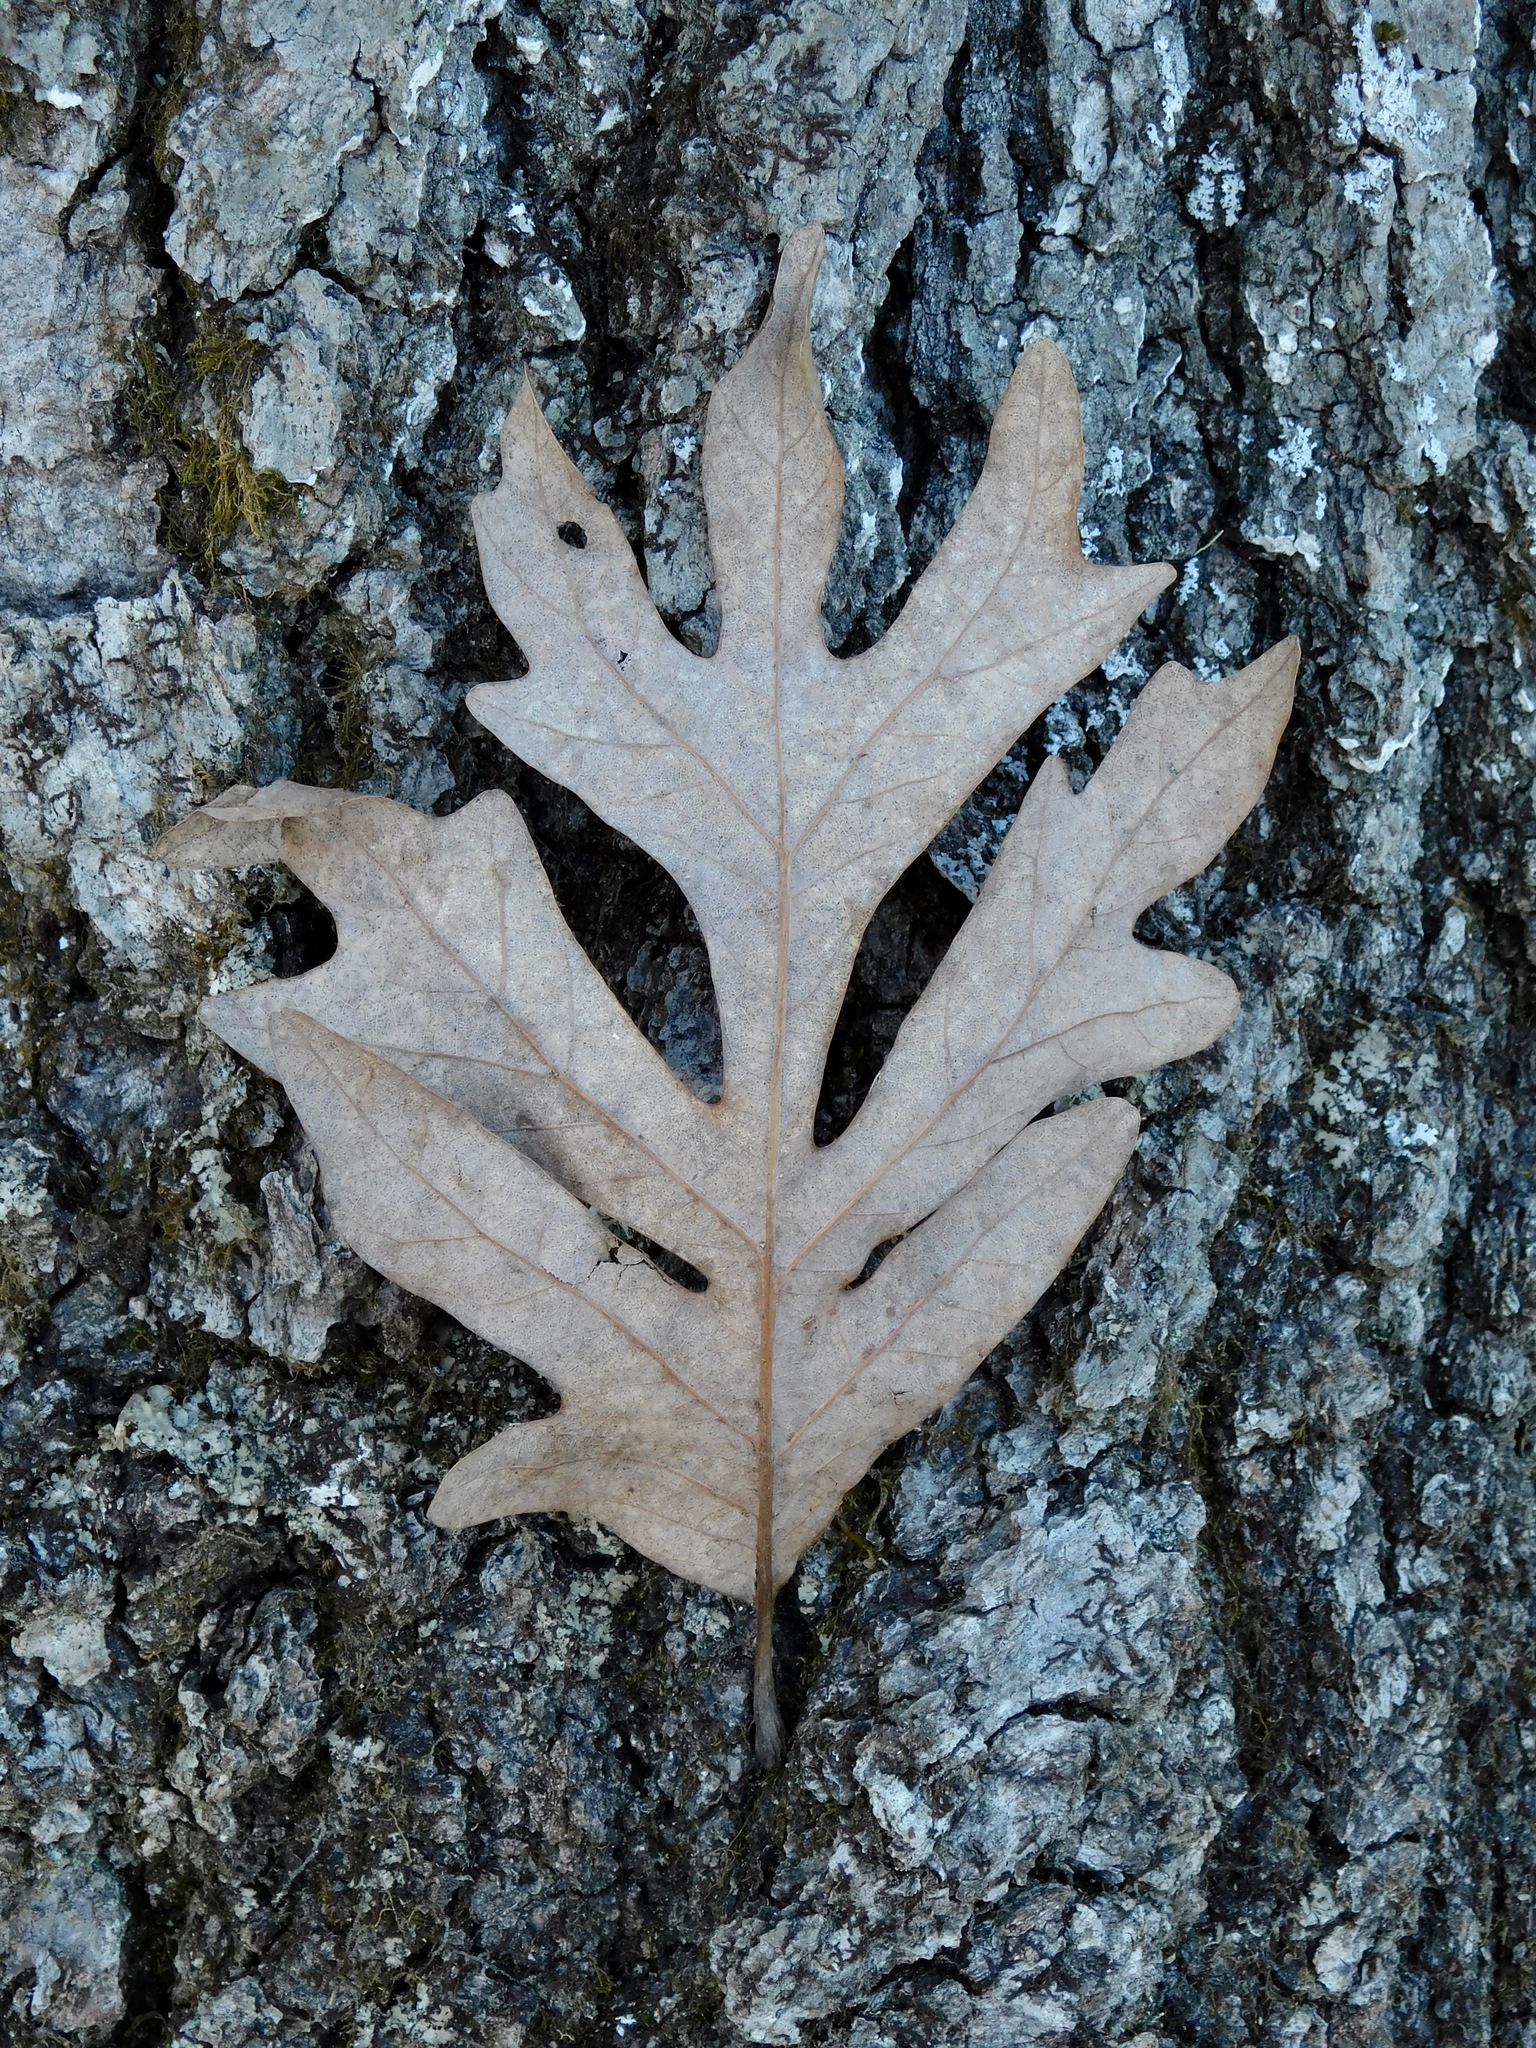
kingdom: Plantae
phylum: Tracheophyta
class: Magnoliopsida
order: Fagales
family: Fagaceae
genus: Quercus
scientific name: Quercus alba
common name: White oak
